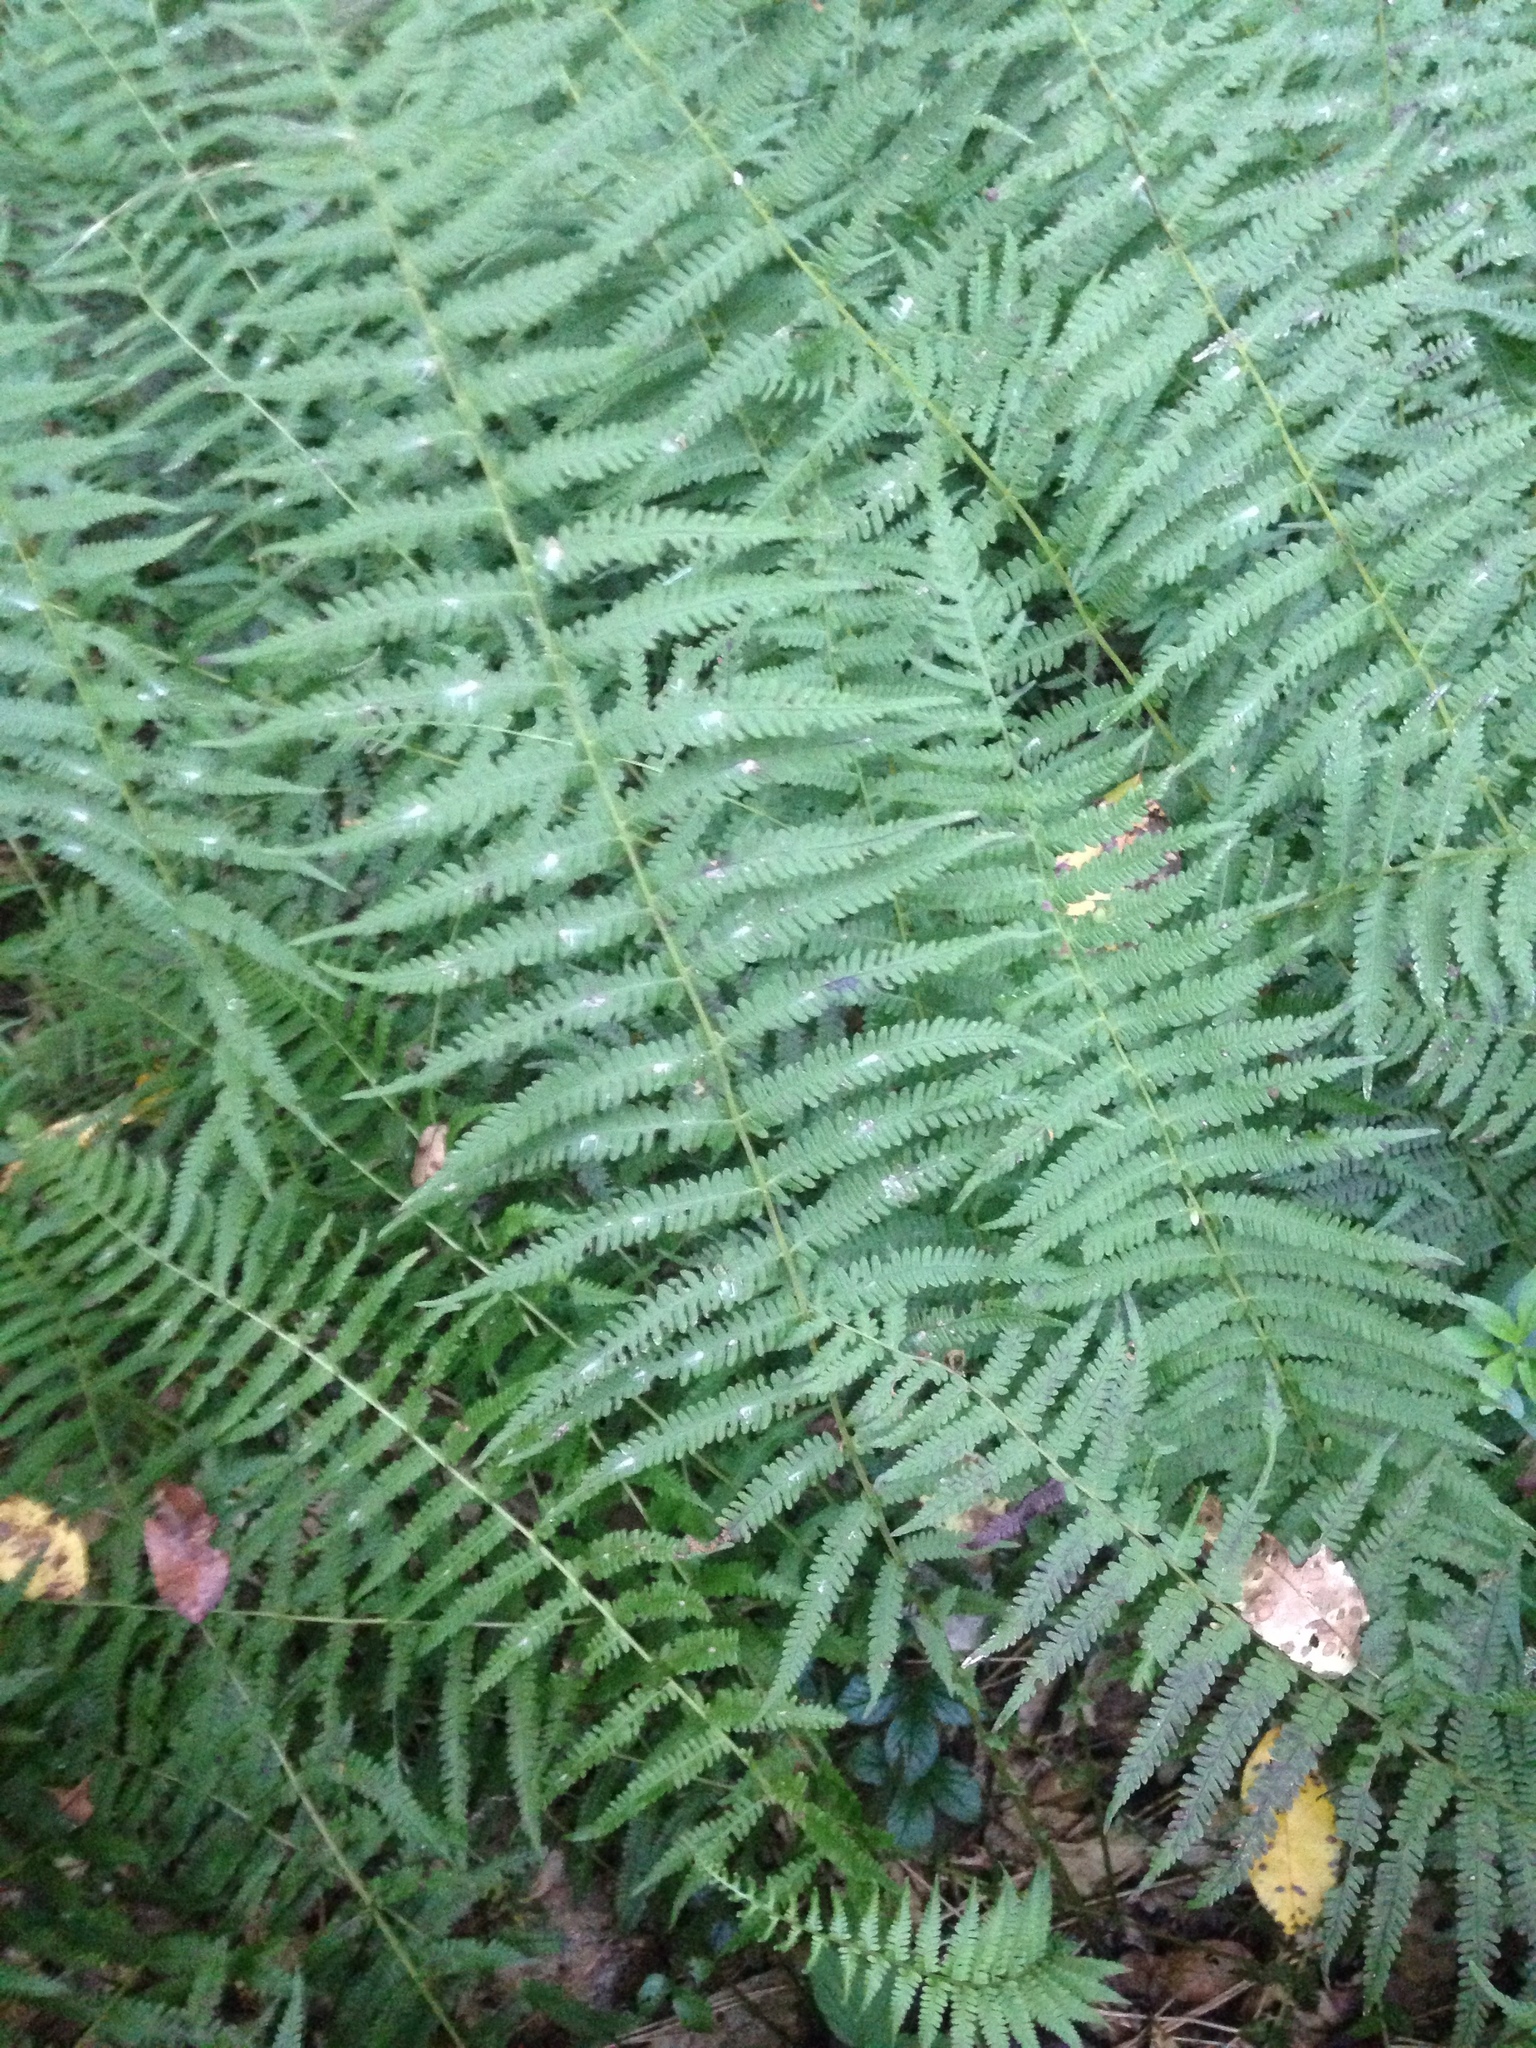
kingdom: Plantae
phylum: Tracheophyta
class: Polypodiopsida
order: Polypodiales
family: Thelypteridaceae
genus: Amauropelta
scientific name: Amauropelta noveboracensis
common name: New york fern
